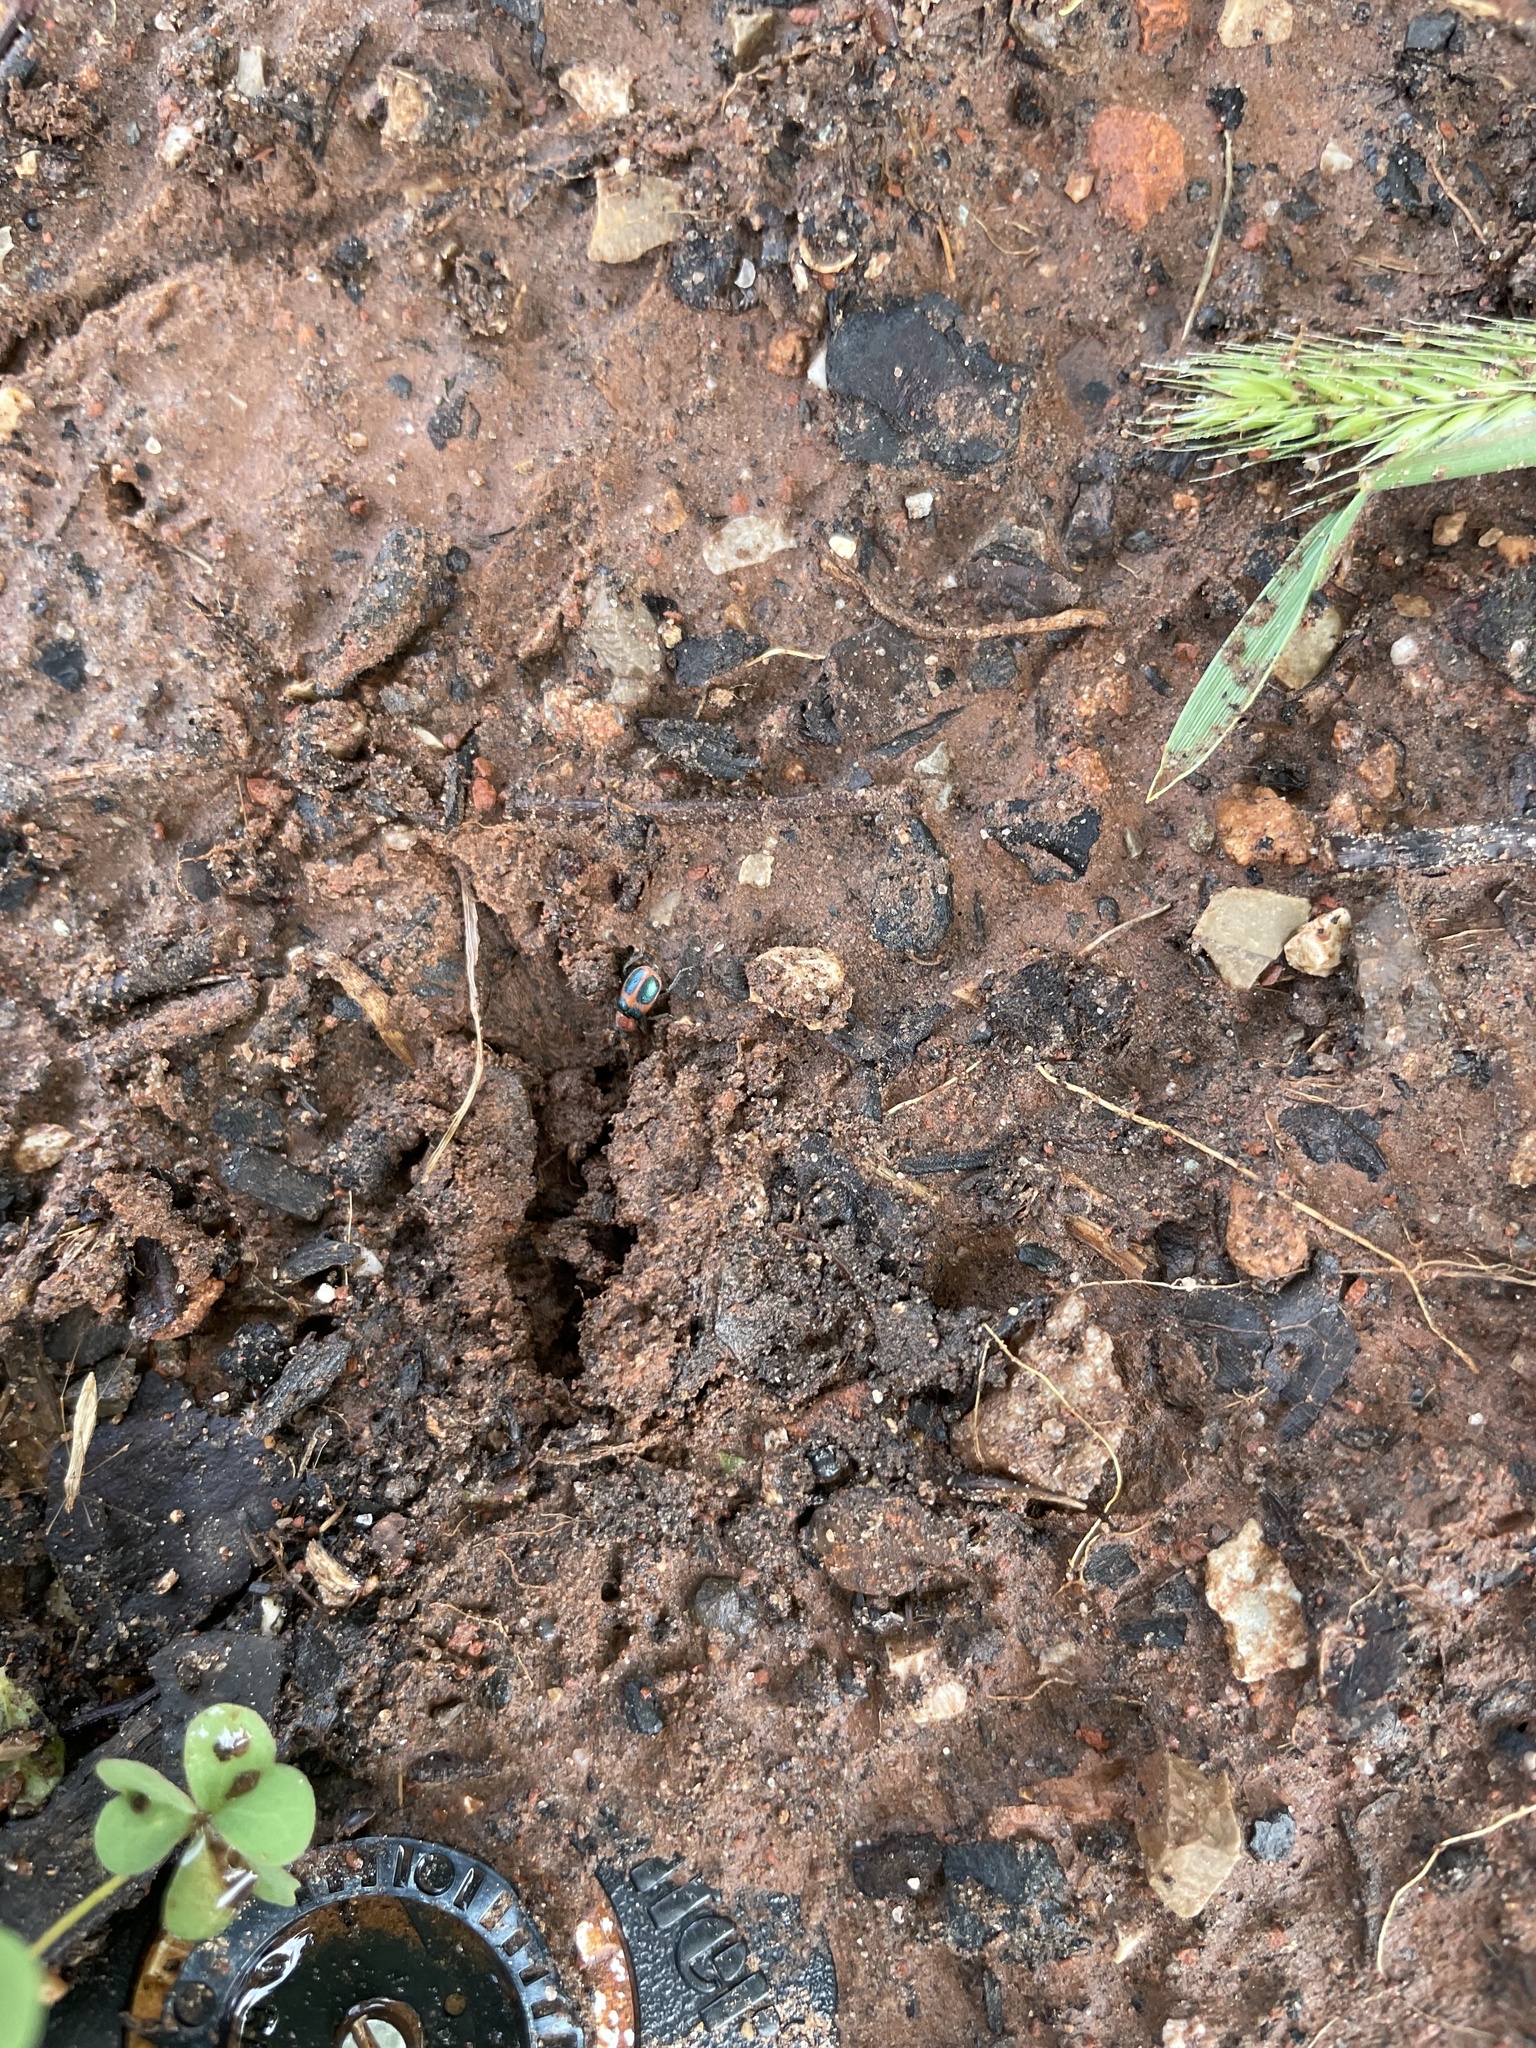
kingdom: Animalia
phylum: Arthropoda
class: Insecta
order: Coleoptera
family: Melyridae
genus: Collops
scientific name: Collops quadrimaculatus
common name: Four-spotted collops
